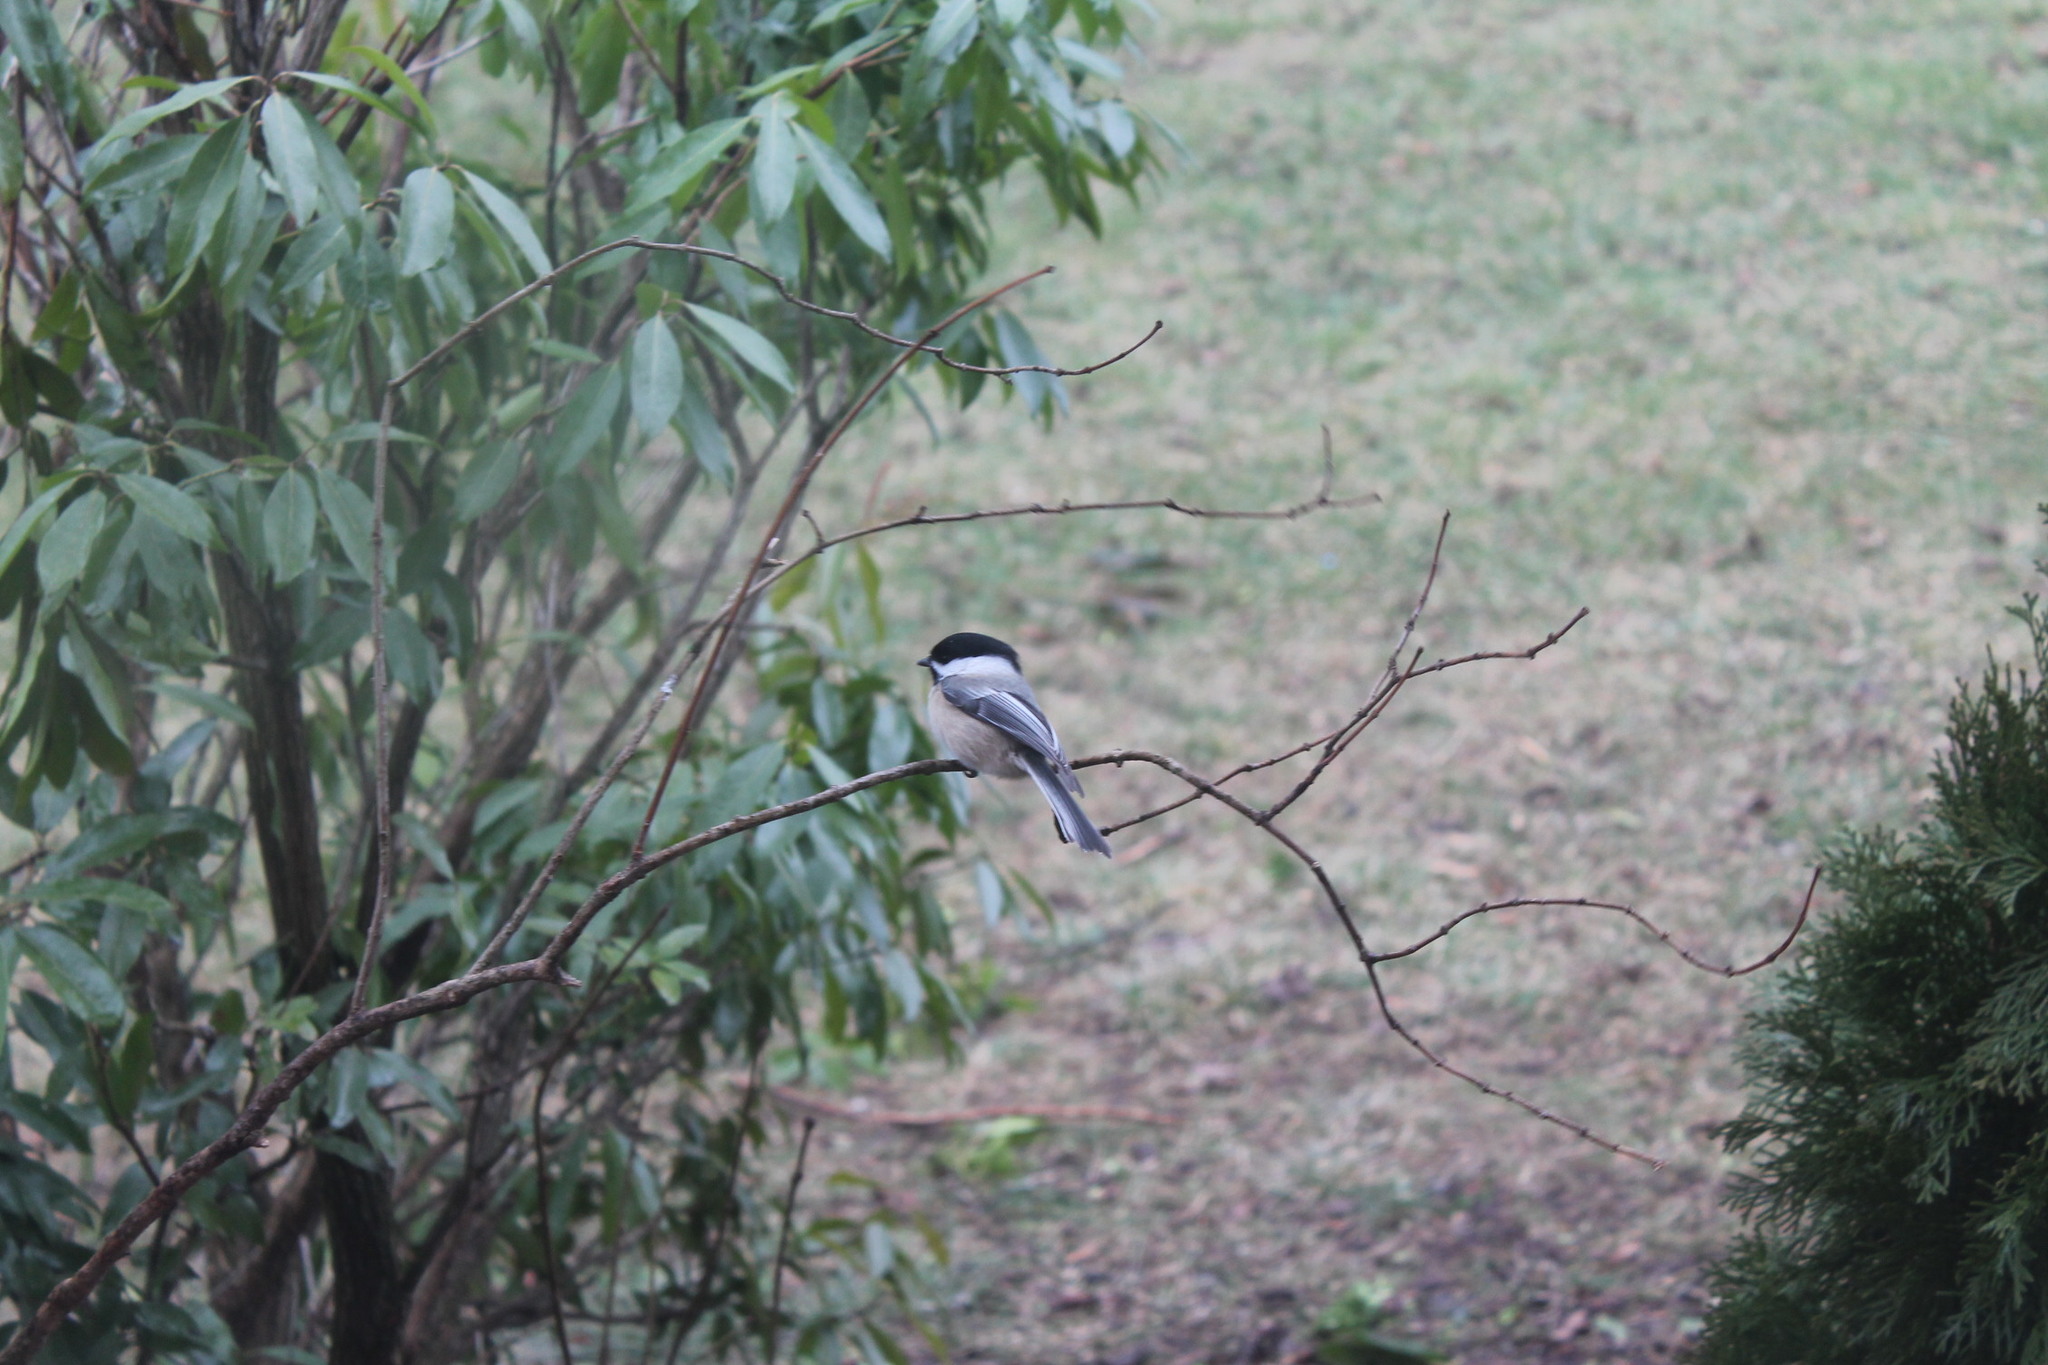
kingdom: Animalia
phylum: Chordata
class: Aves
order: Passeriformes
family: Paridae
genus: Poecile
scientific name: Poecile atricapillus
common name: Black-capped chickadee
